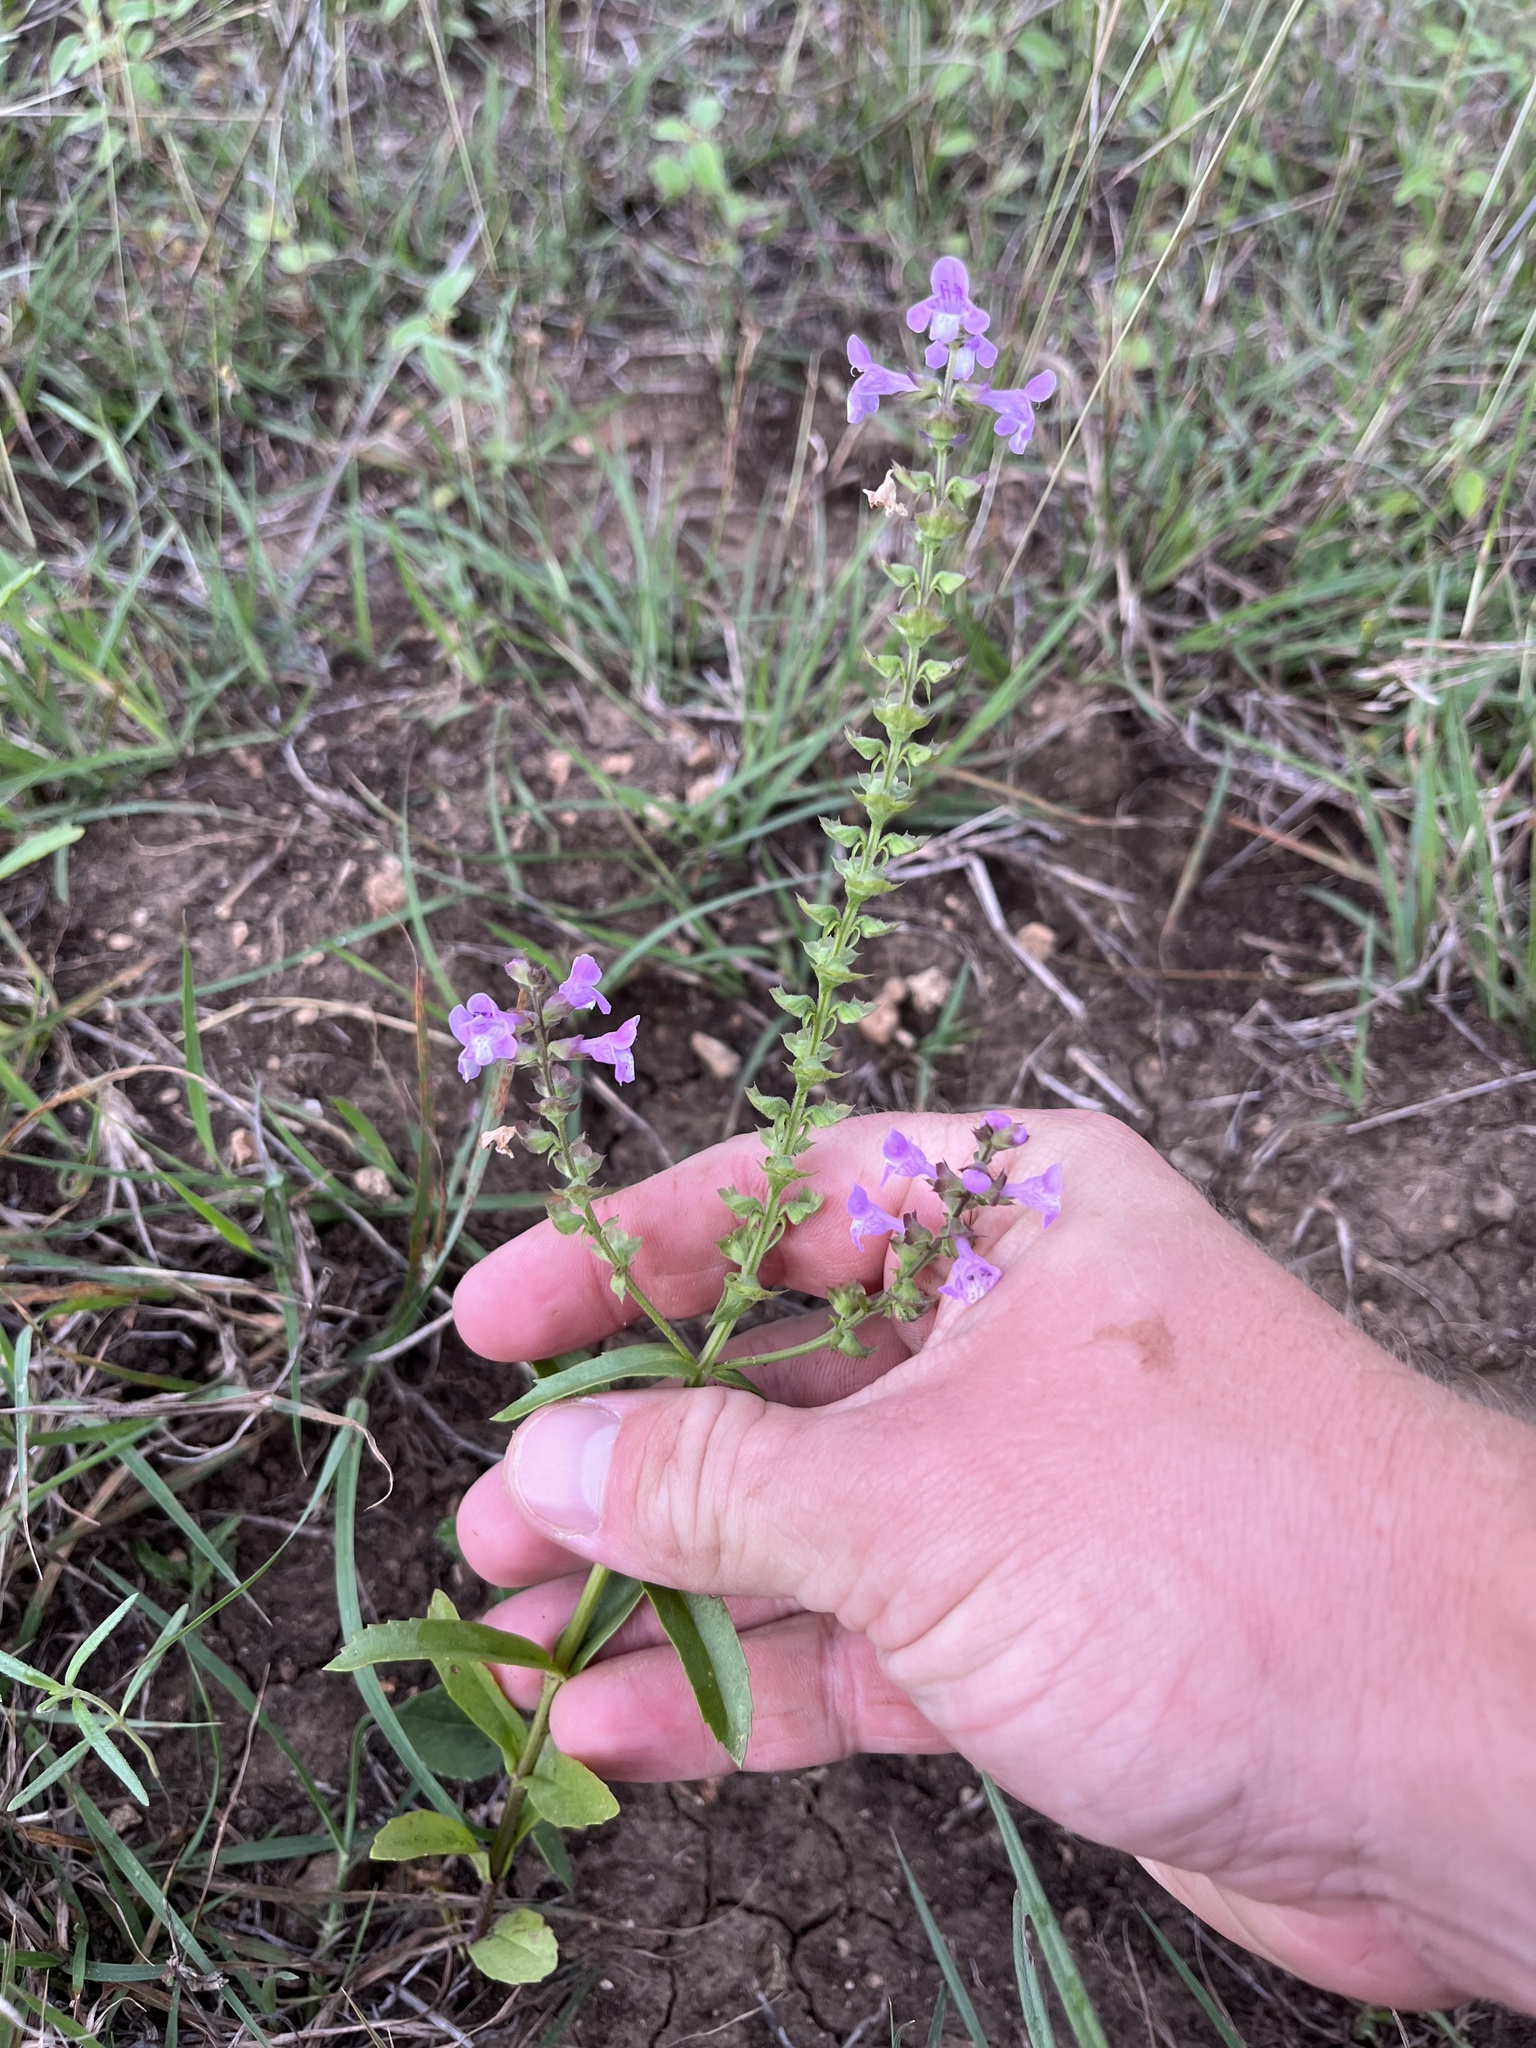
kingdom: Plantae
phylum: Tracheophyta
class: Magnoliopsida
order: Lamiales
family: Orobanchaceae
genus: Castilleja
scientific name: Castilleja lindheimeri
